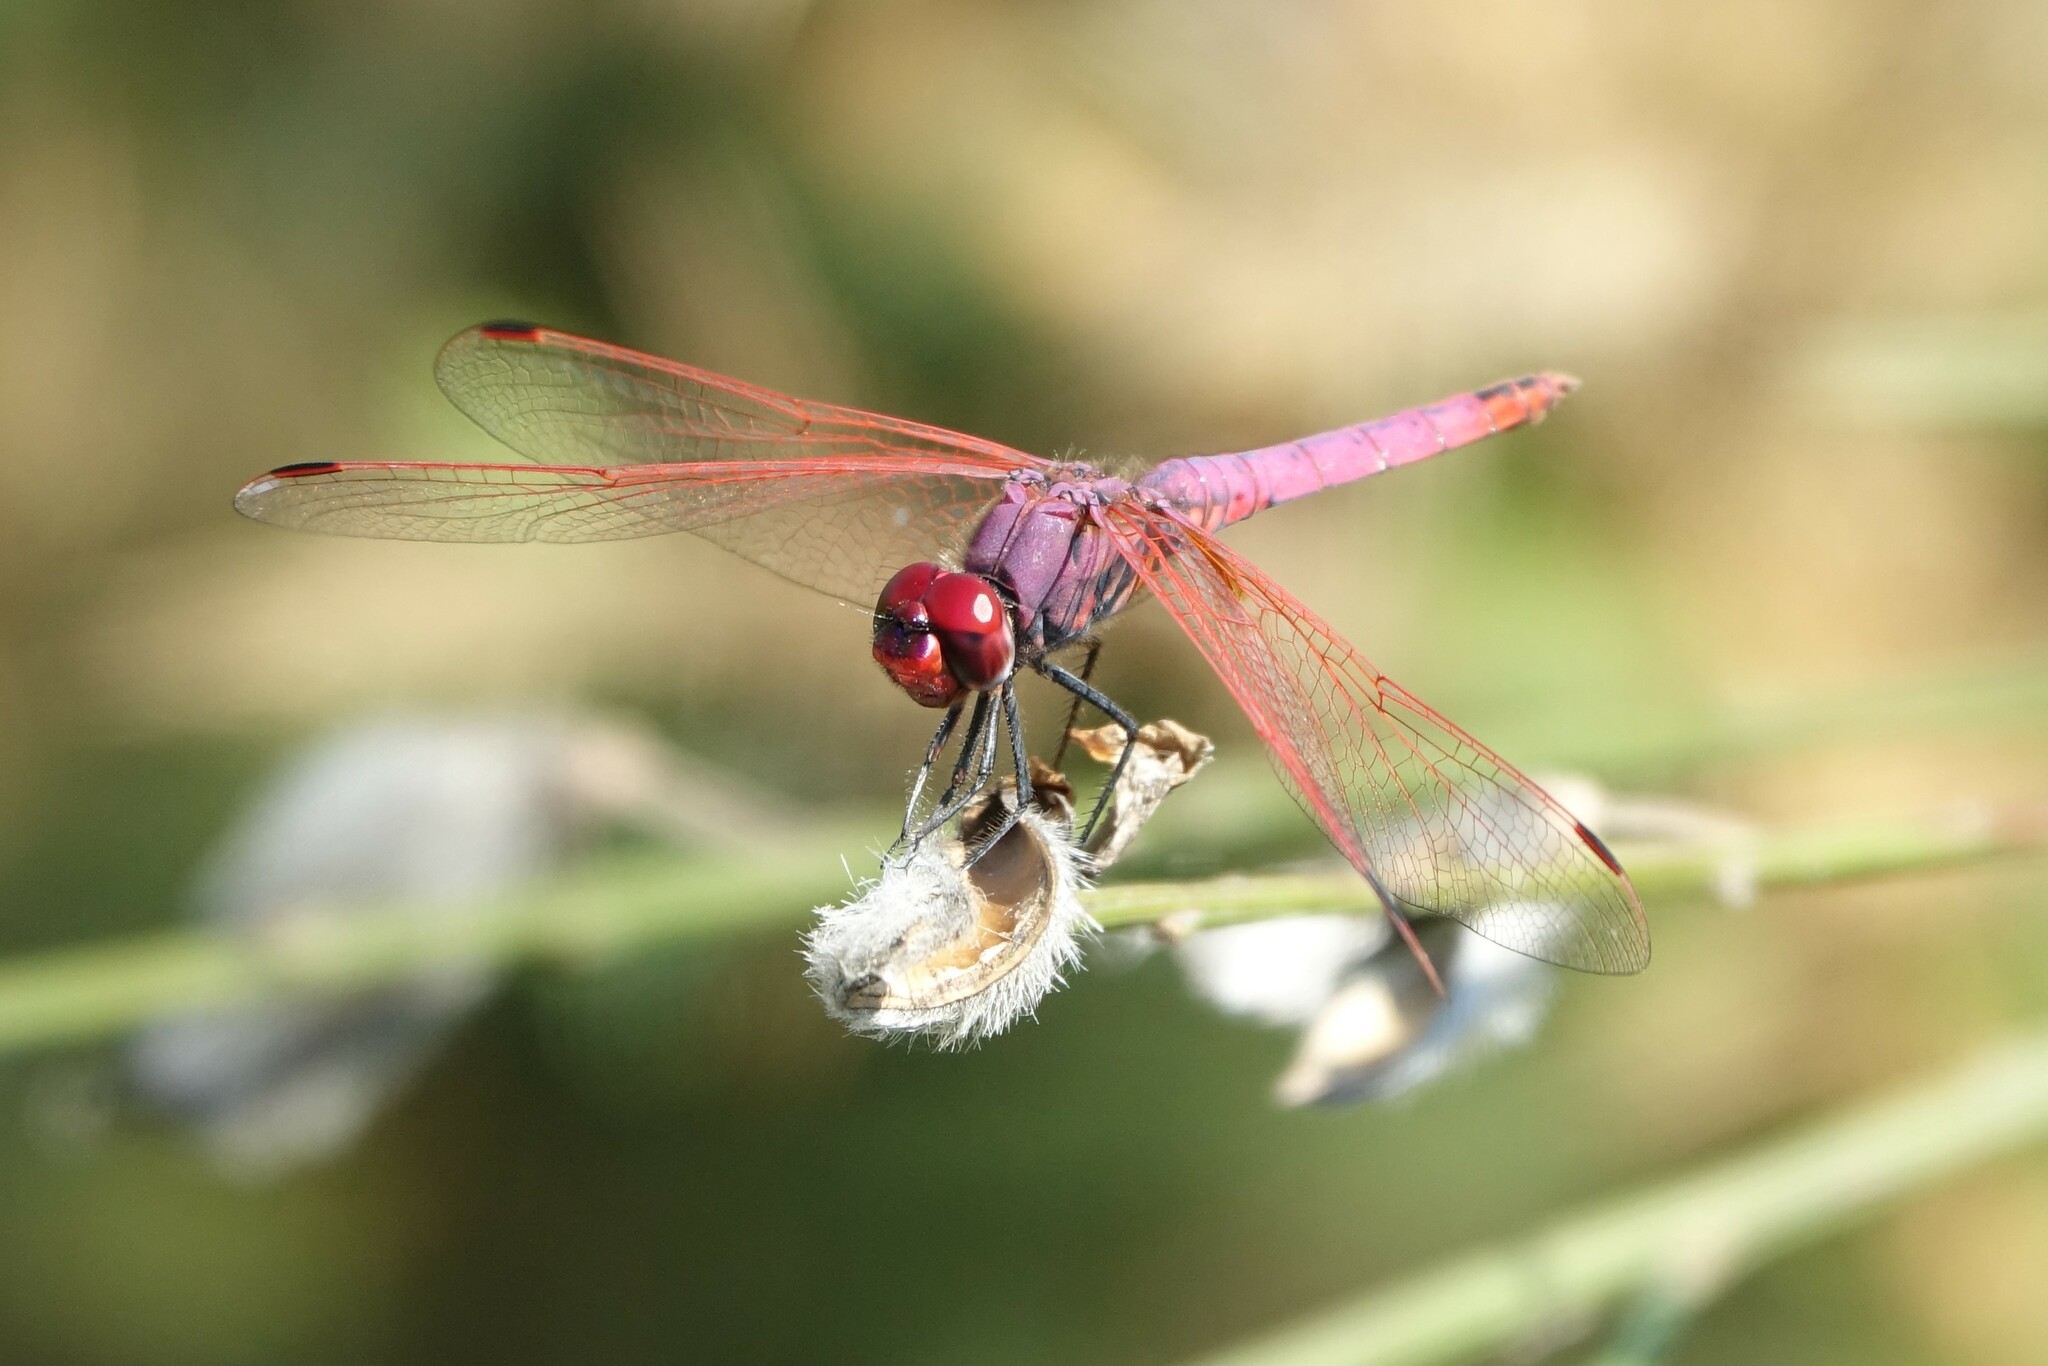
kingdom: Animalia
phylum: Arthropoda
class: Insecta
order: Odonata
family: Libellulidae
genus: Trithemis
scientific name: Trithemis annulata
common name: Violet dropwing
